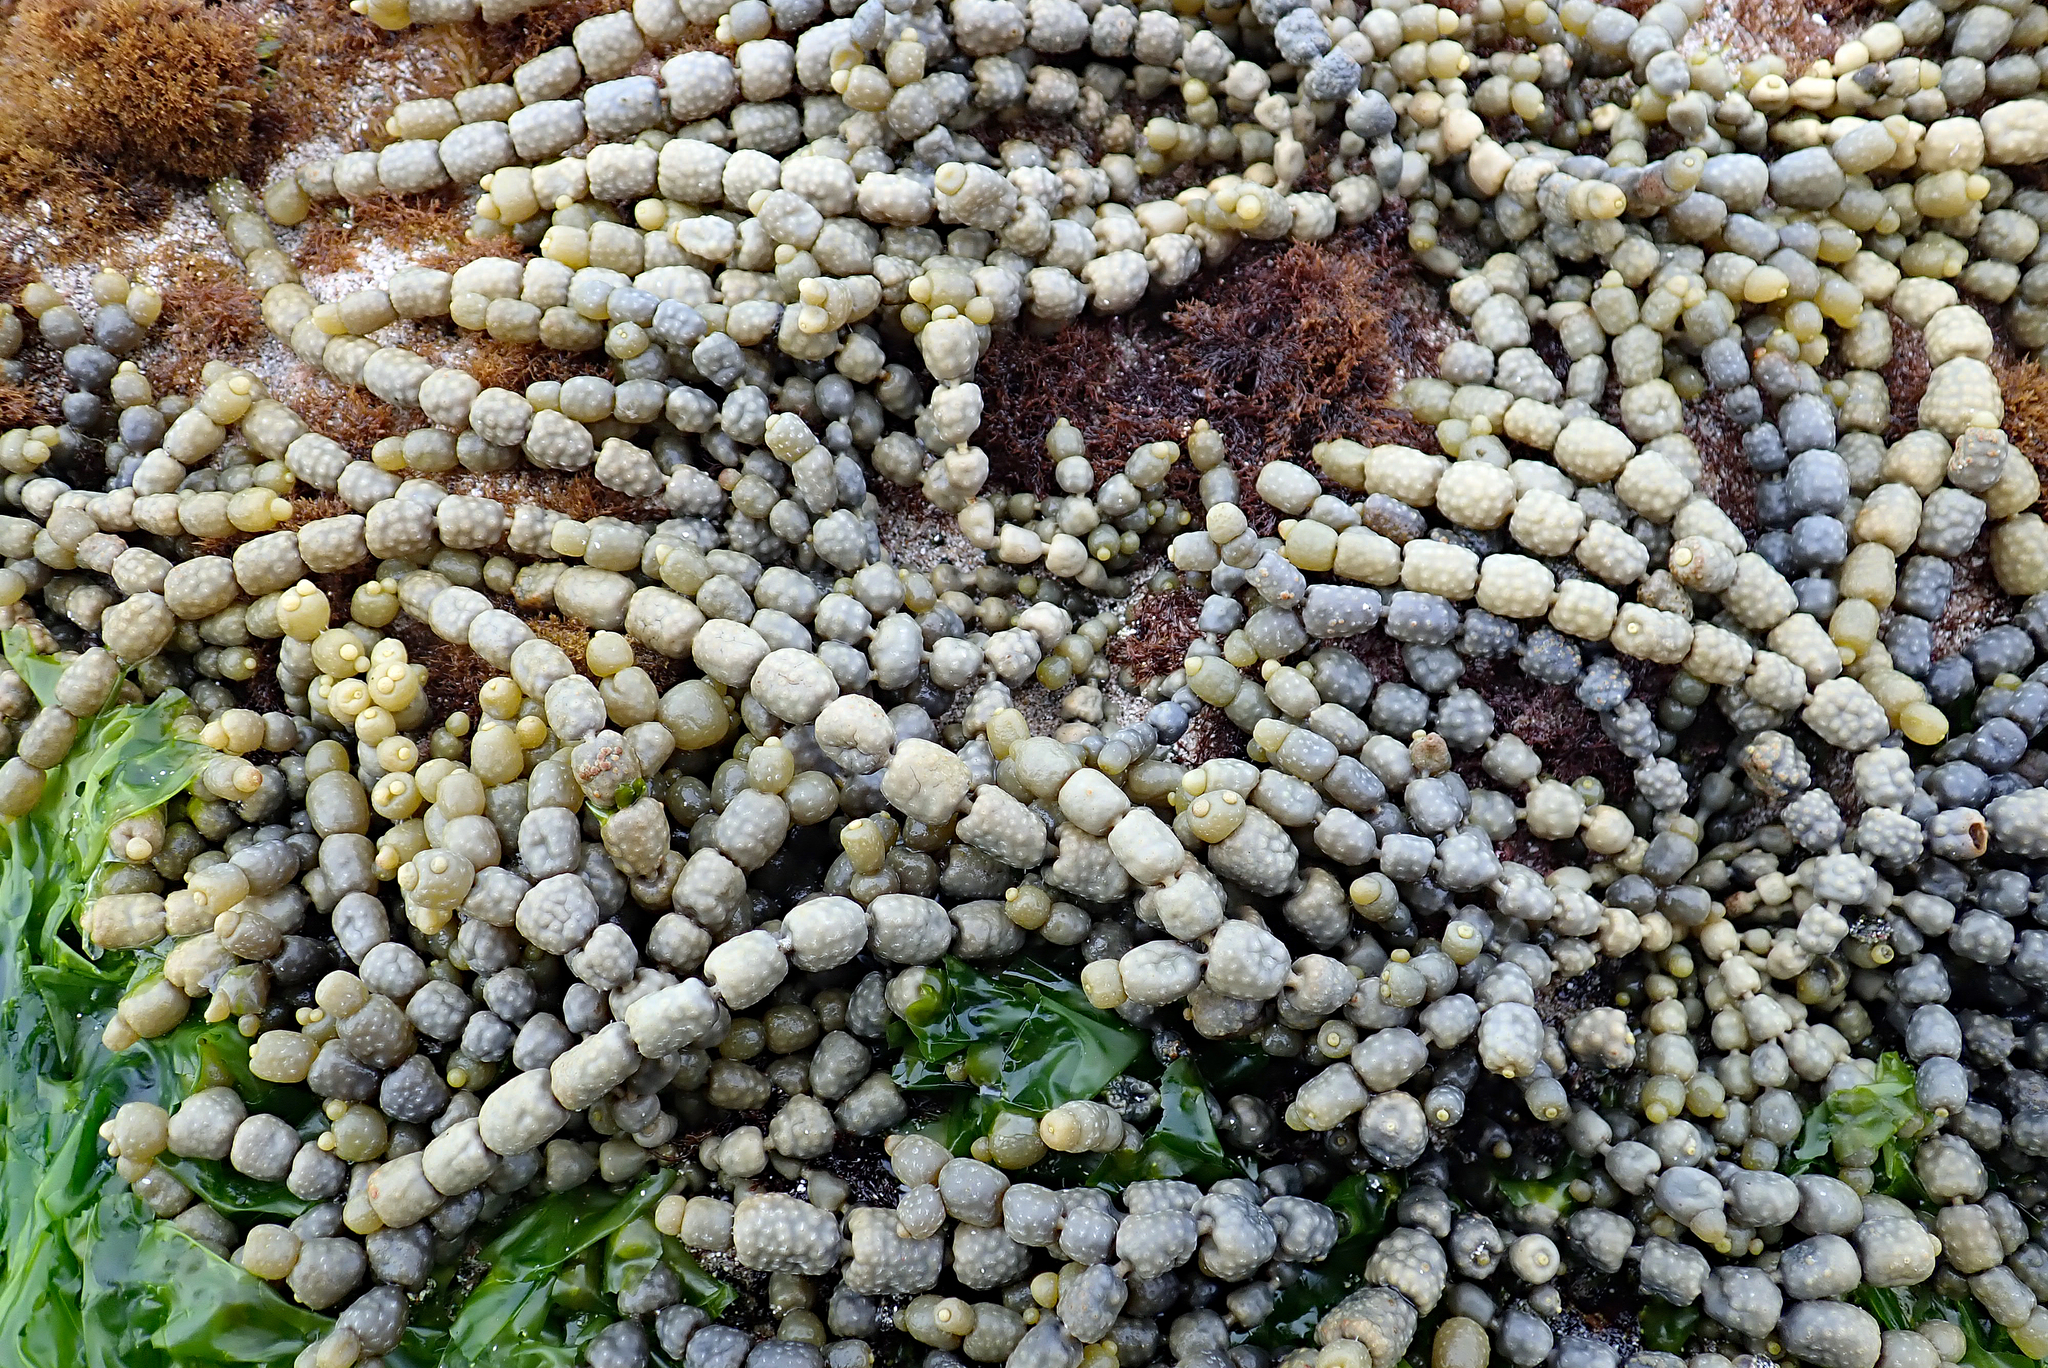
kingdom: Chromista
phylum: Ochrophyta
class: Phaeophyceae
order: Fucales
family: Hormosiraceae
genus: Hormosira
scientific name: Hormosira banksii
